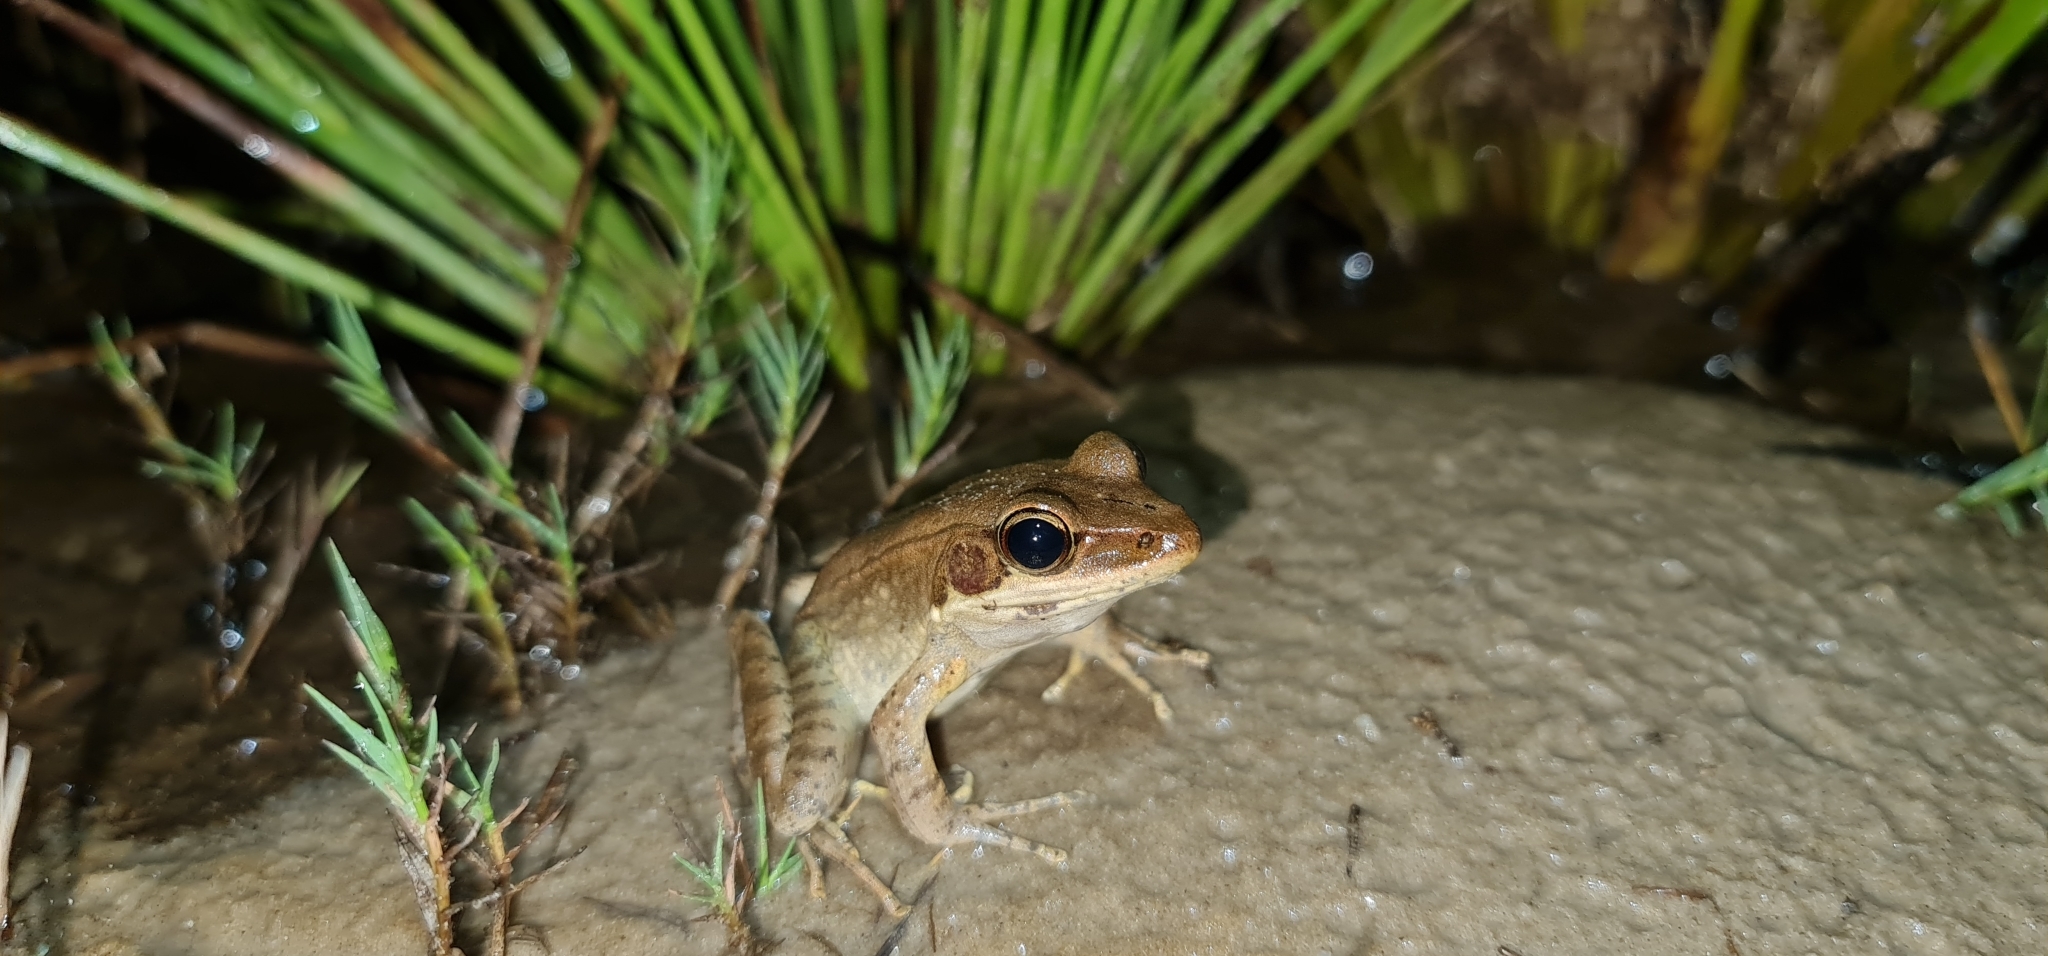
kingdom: Animalia
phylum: Chordata
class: Amphibia
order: Anura
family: Ranidae
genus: Papurana
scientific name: Papurana daemeli
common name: Arhem rana
